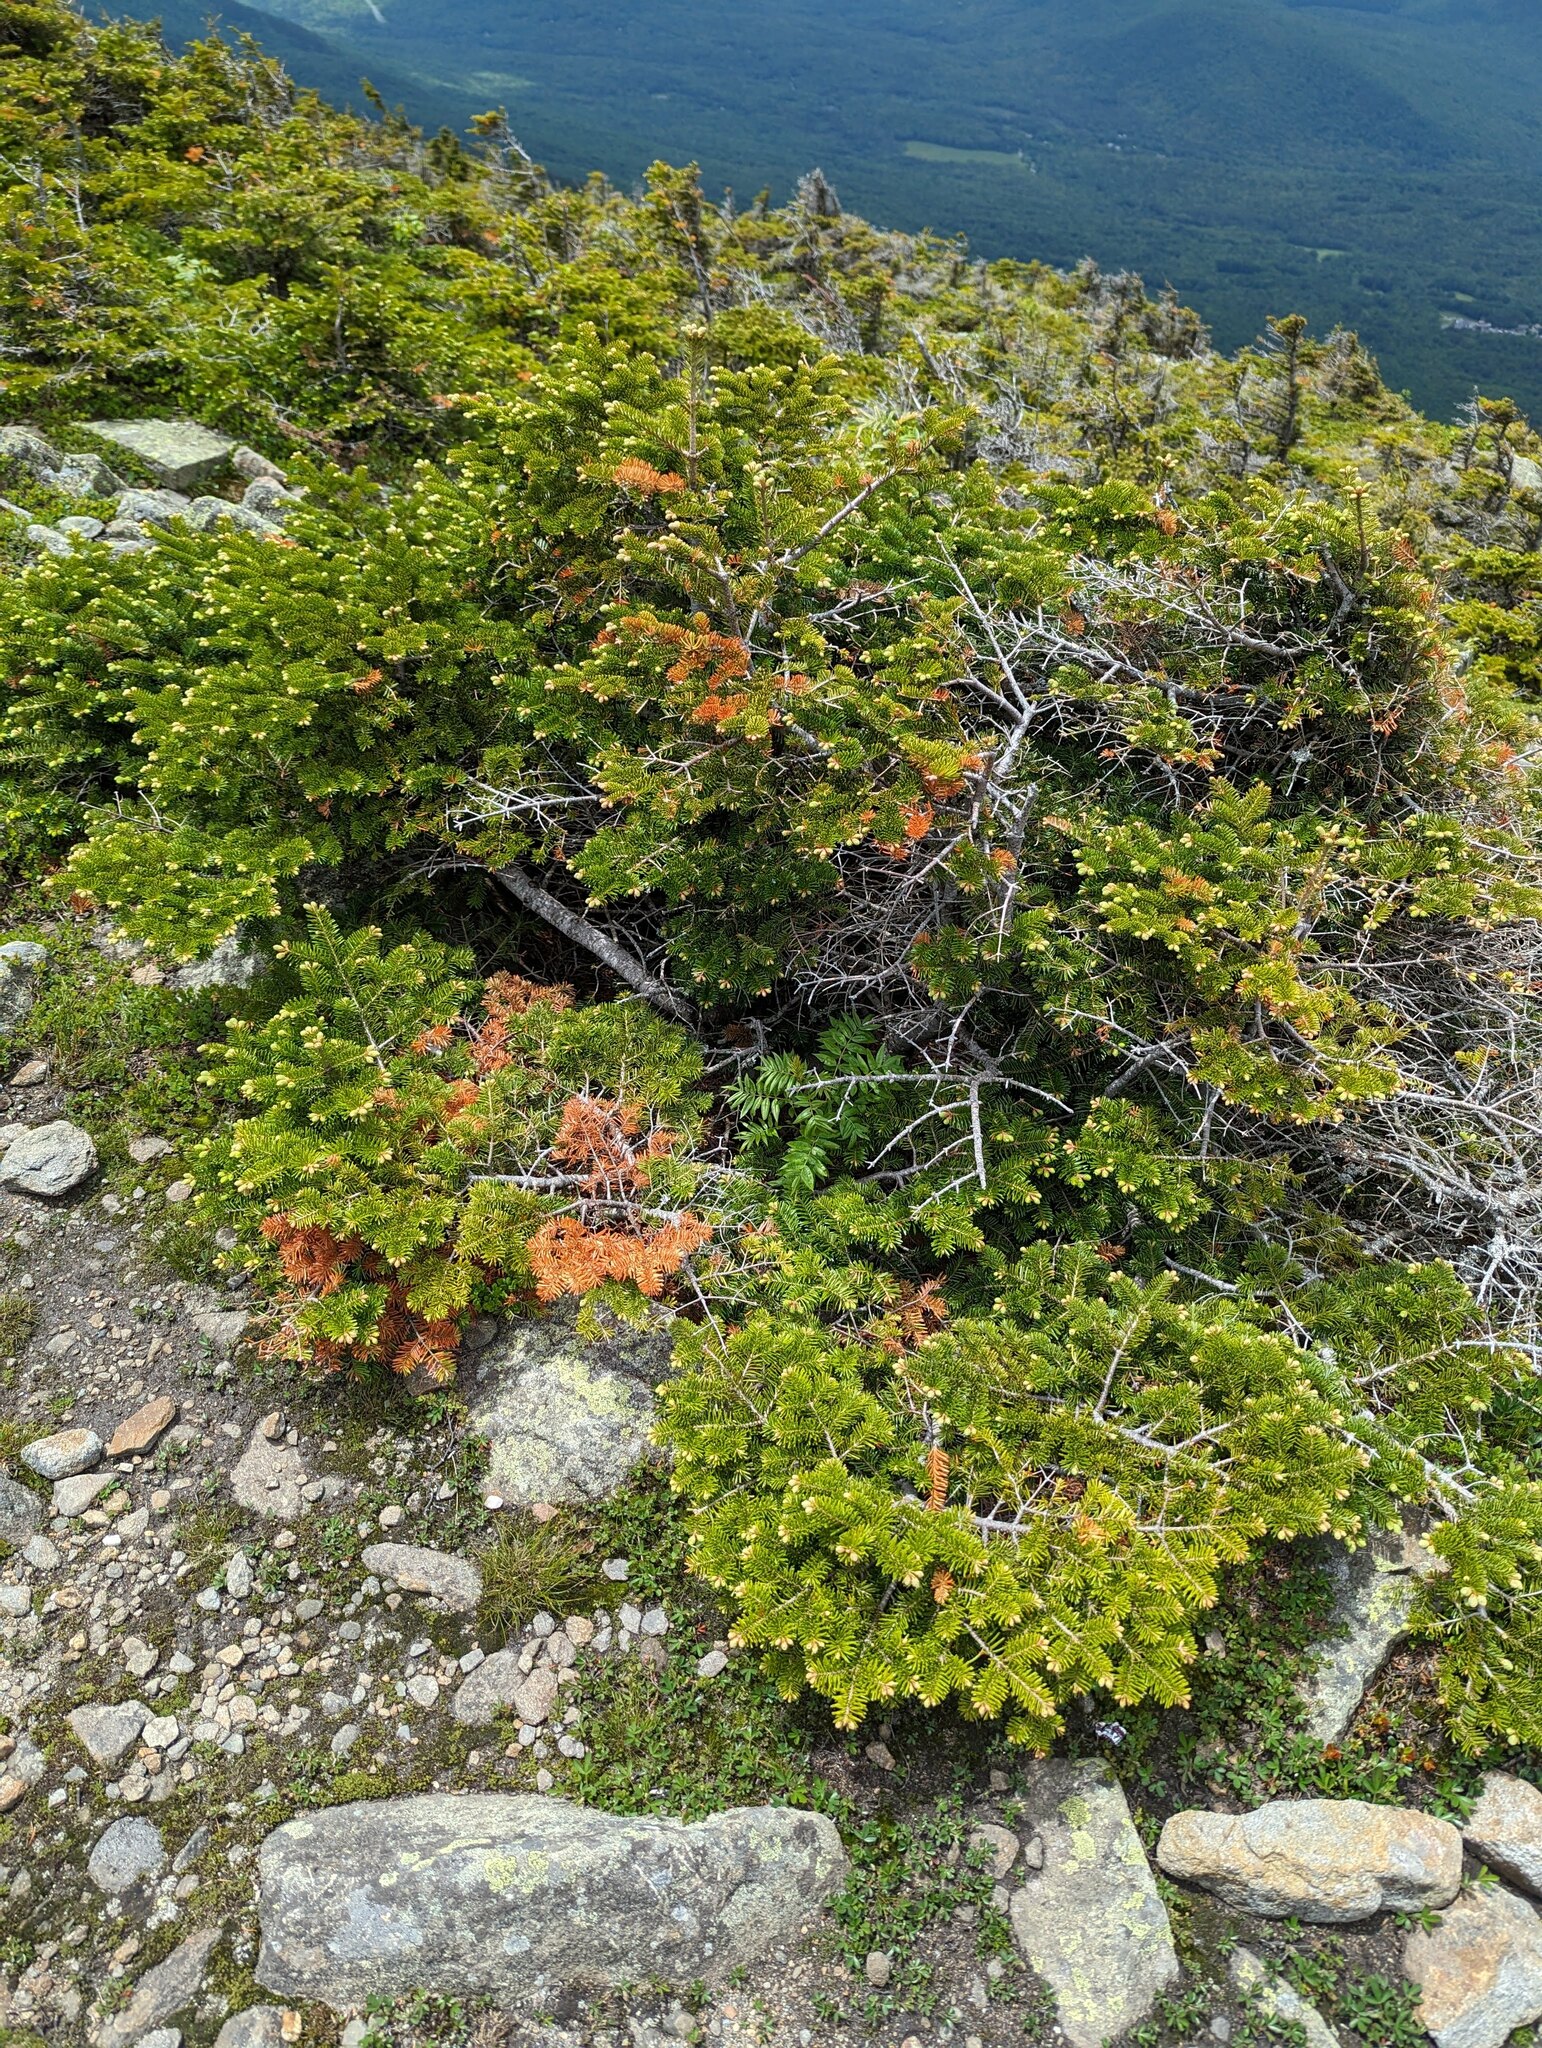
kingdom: Plantae
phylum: Tracheophyta
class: Pinopsida
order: Pinales
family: Pinaceae
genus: Abies
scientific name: Abies balsamea
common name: Balsam fir
